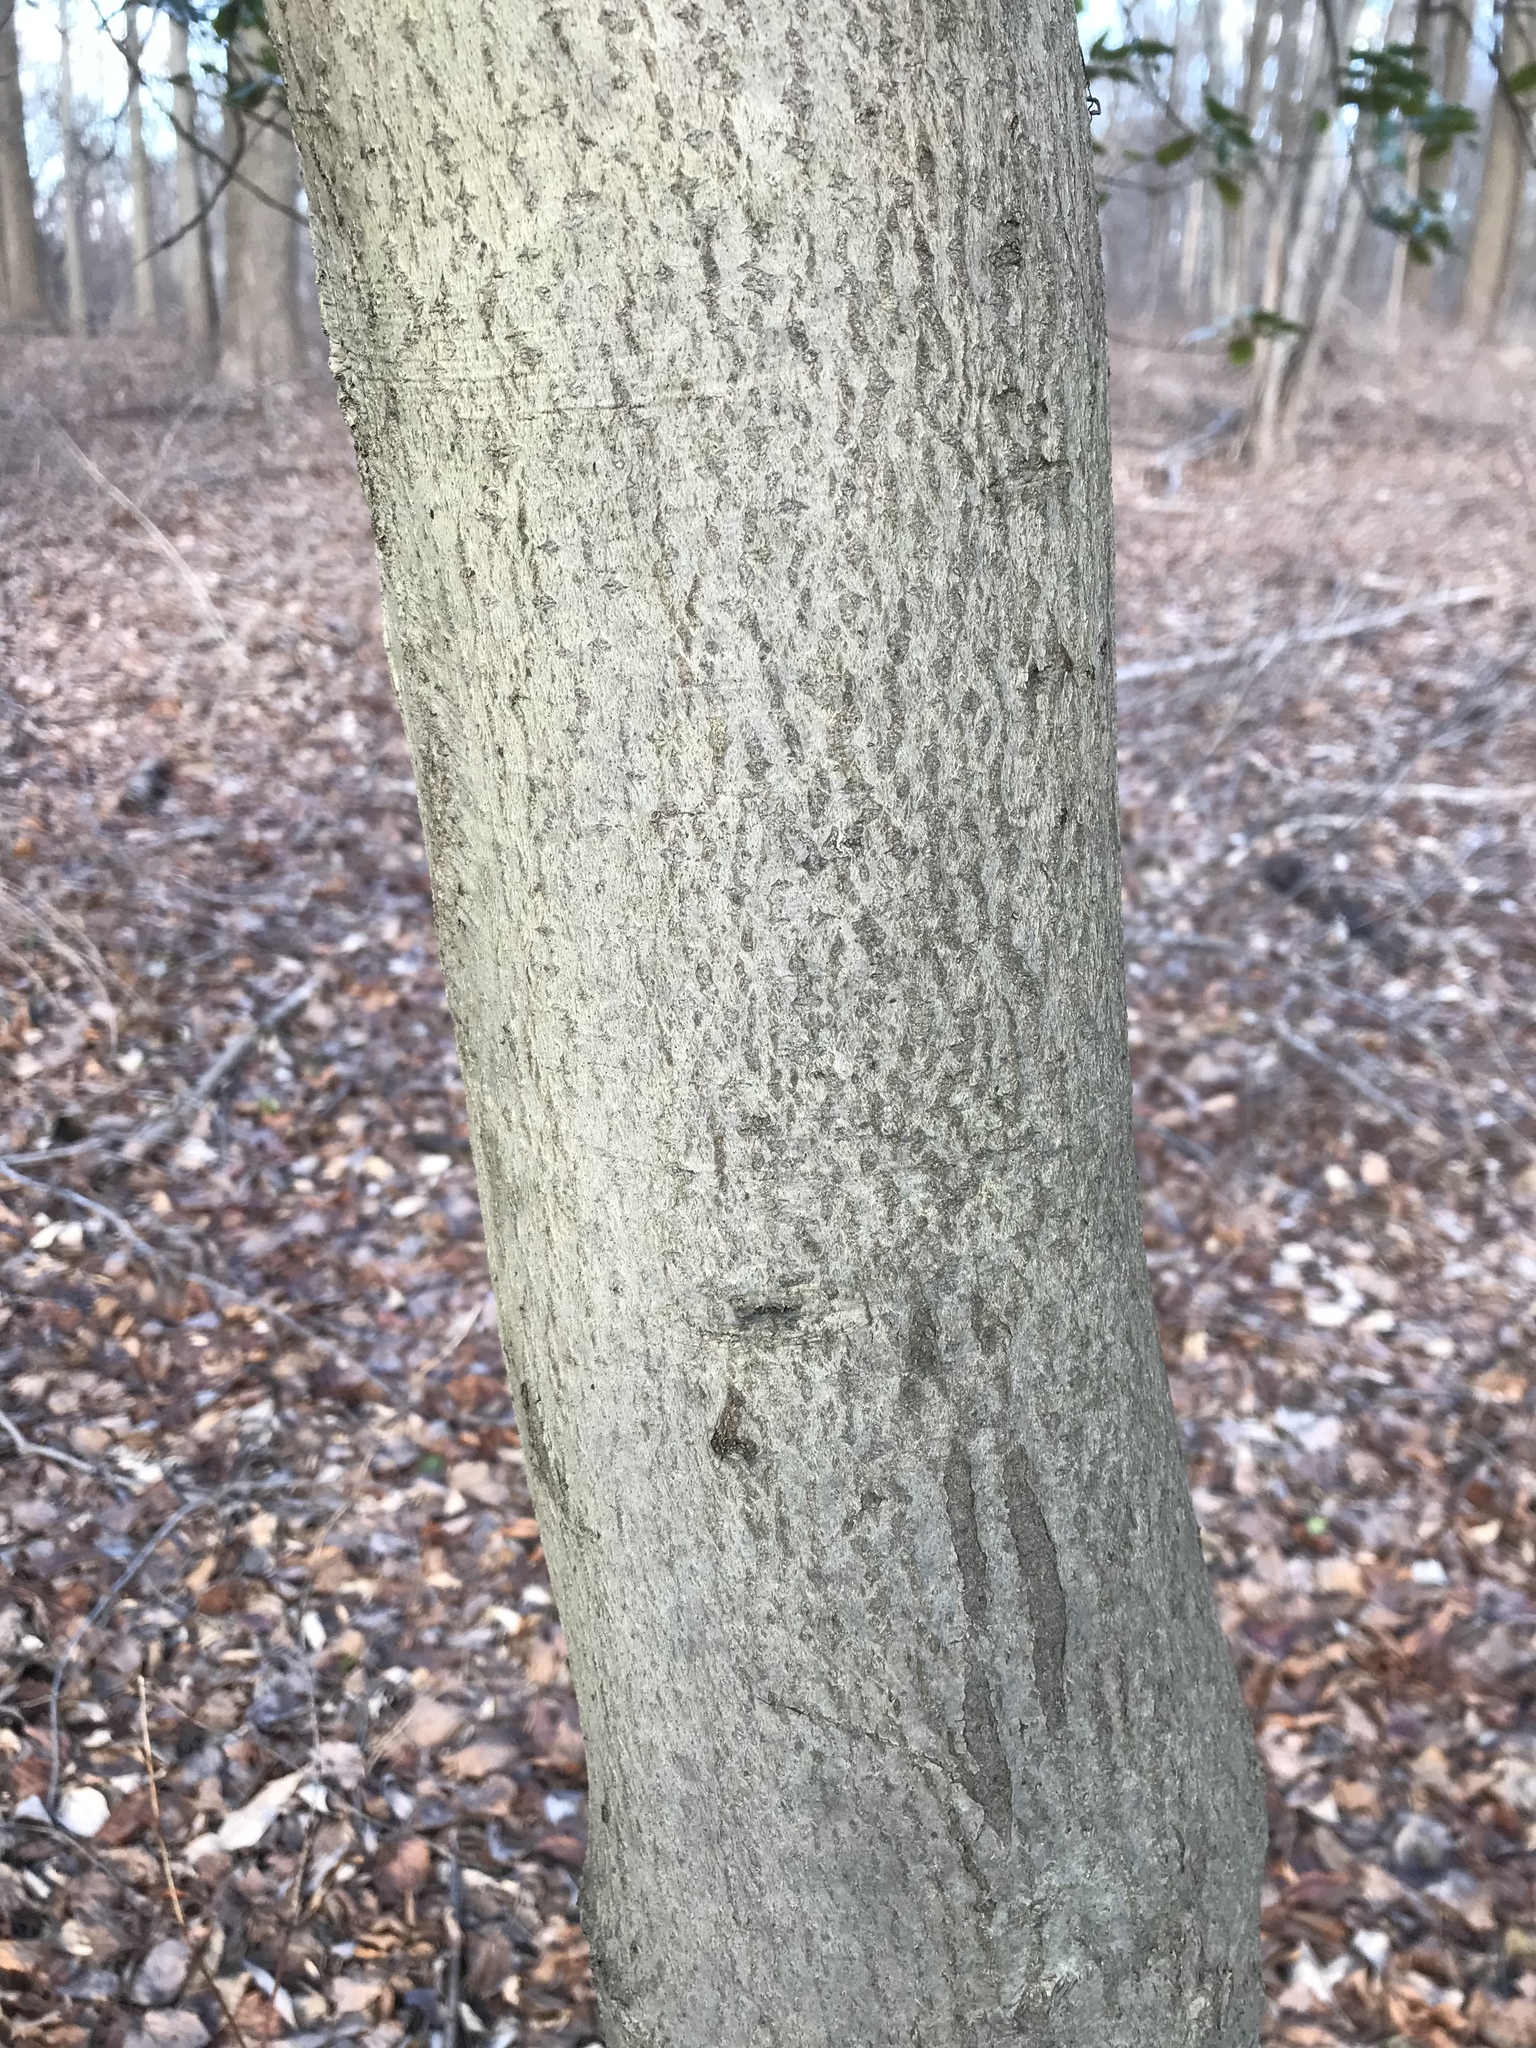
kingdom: Plantae
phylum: Tracheophyta
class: Magnoliopsida
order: Aquifoliales
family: Aquifoliaceae
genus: Ilex
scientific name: Ilex opaca
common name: American holly
